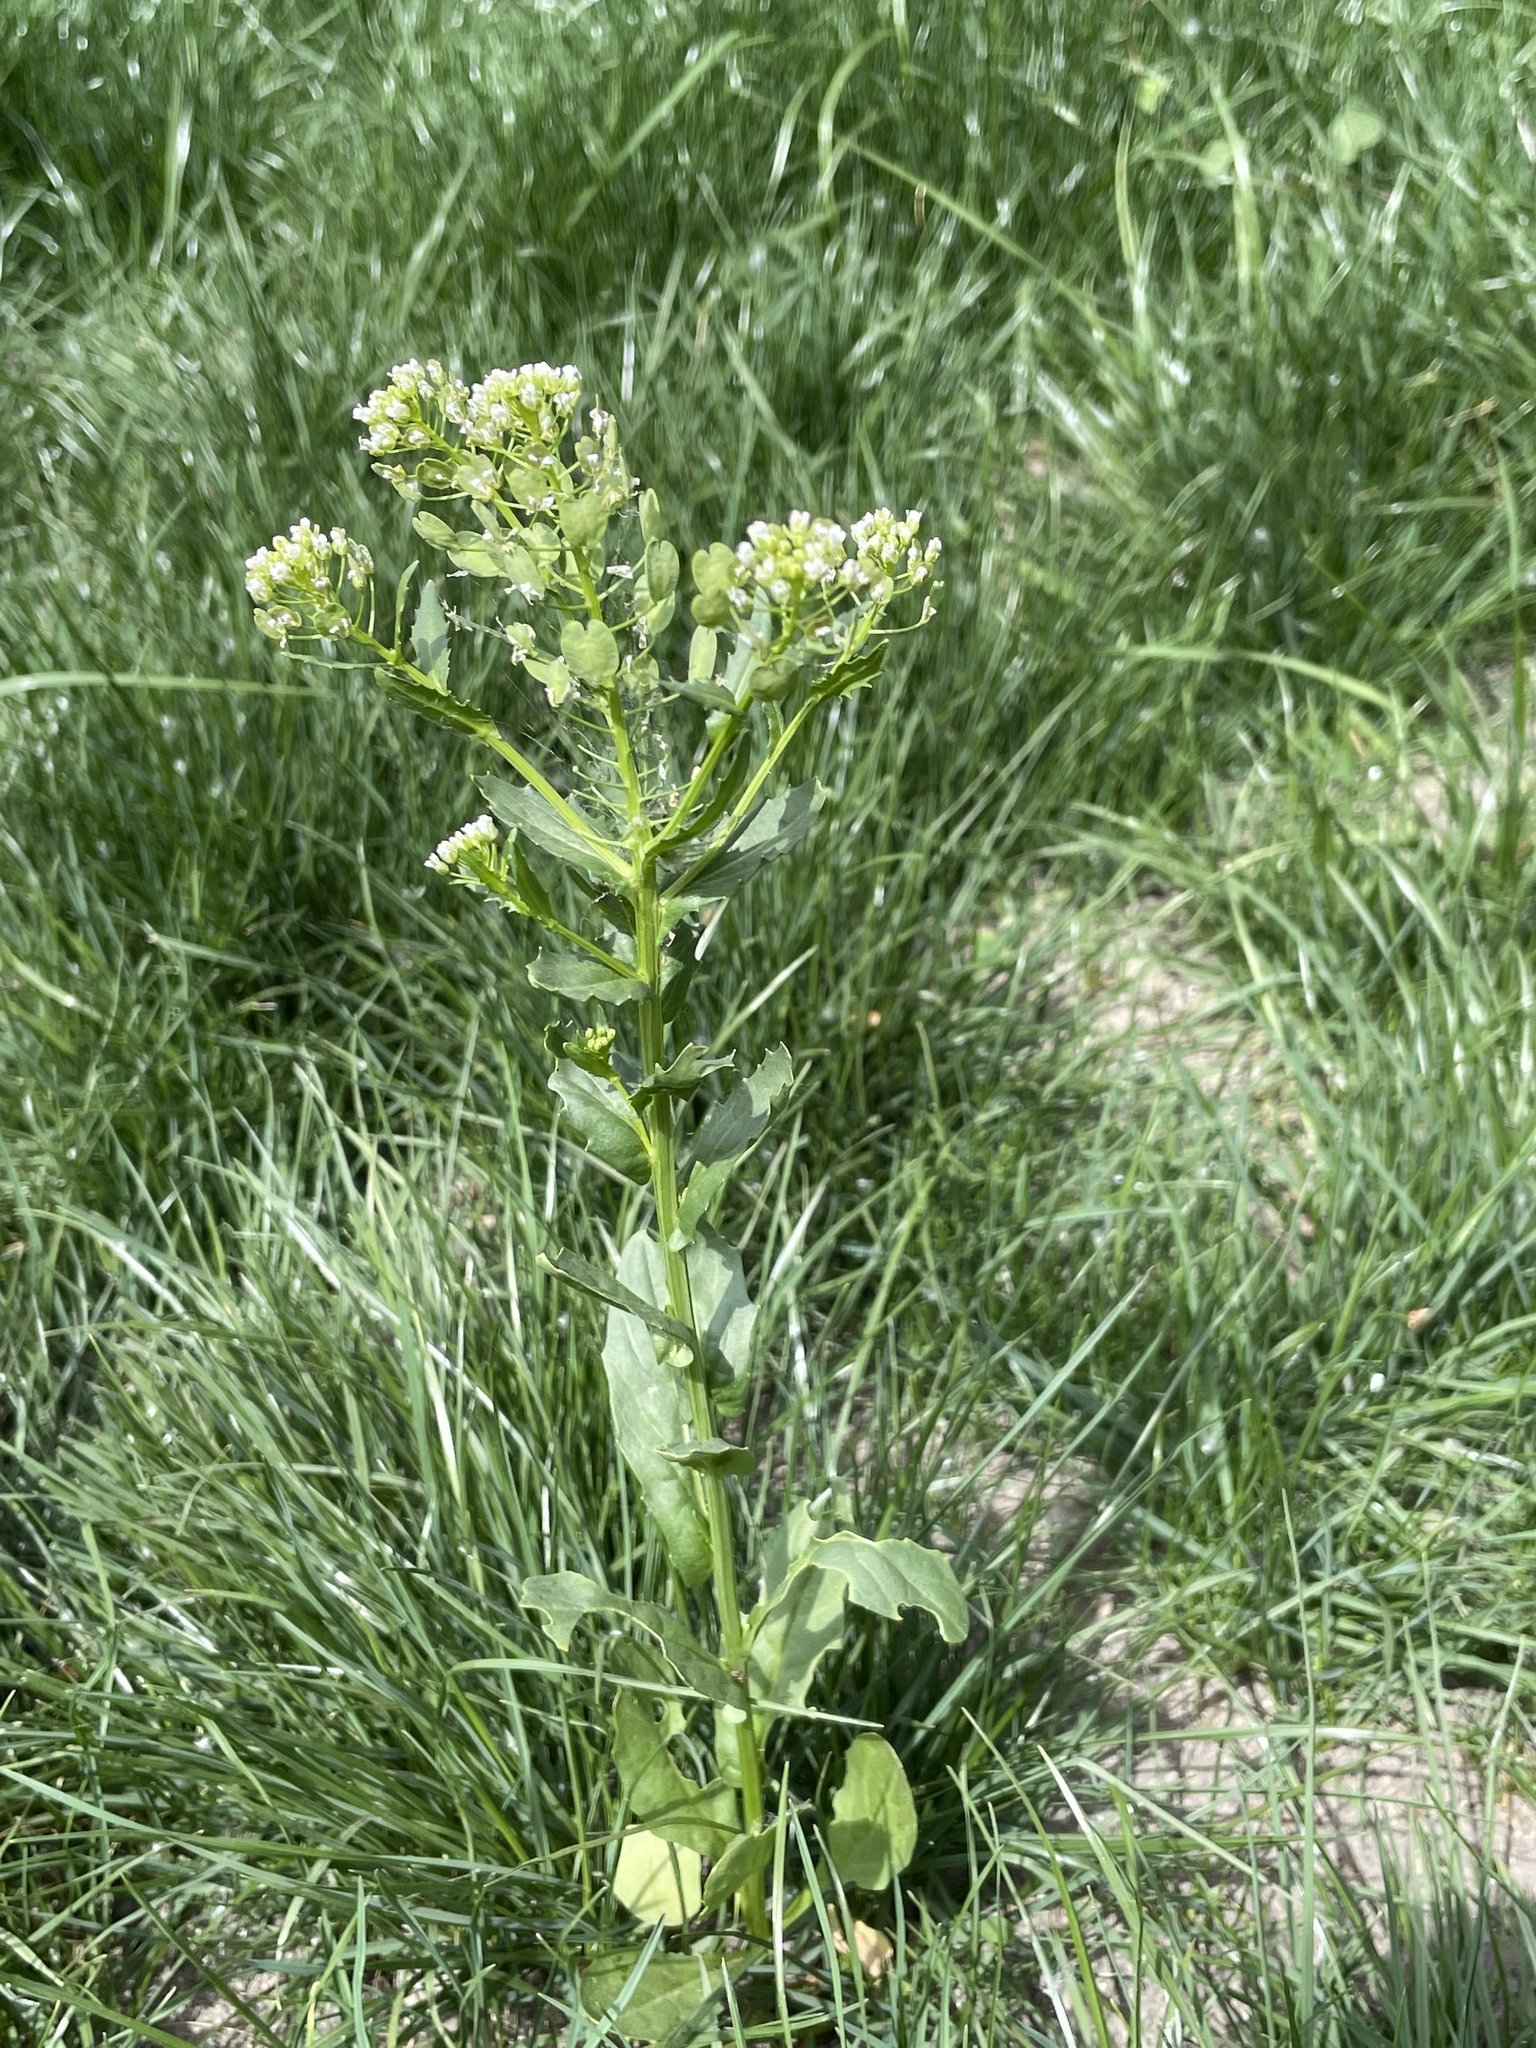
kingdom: Plantae
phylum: Tracheophyta
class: Magnoliopsida
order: Brassicales
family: Brassicaceae
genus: Thlaspi
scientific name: Thlaspi arvense
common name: Field pennycress
